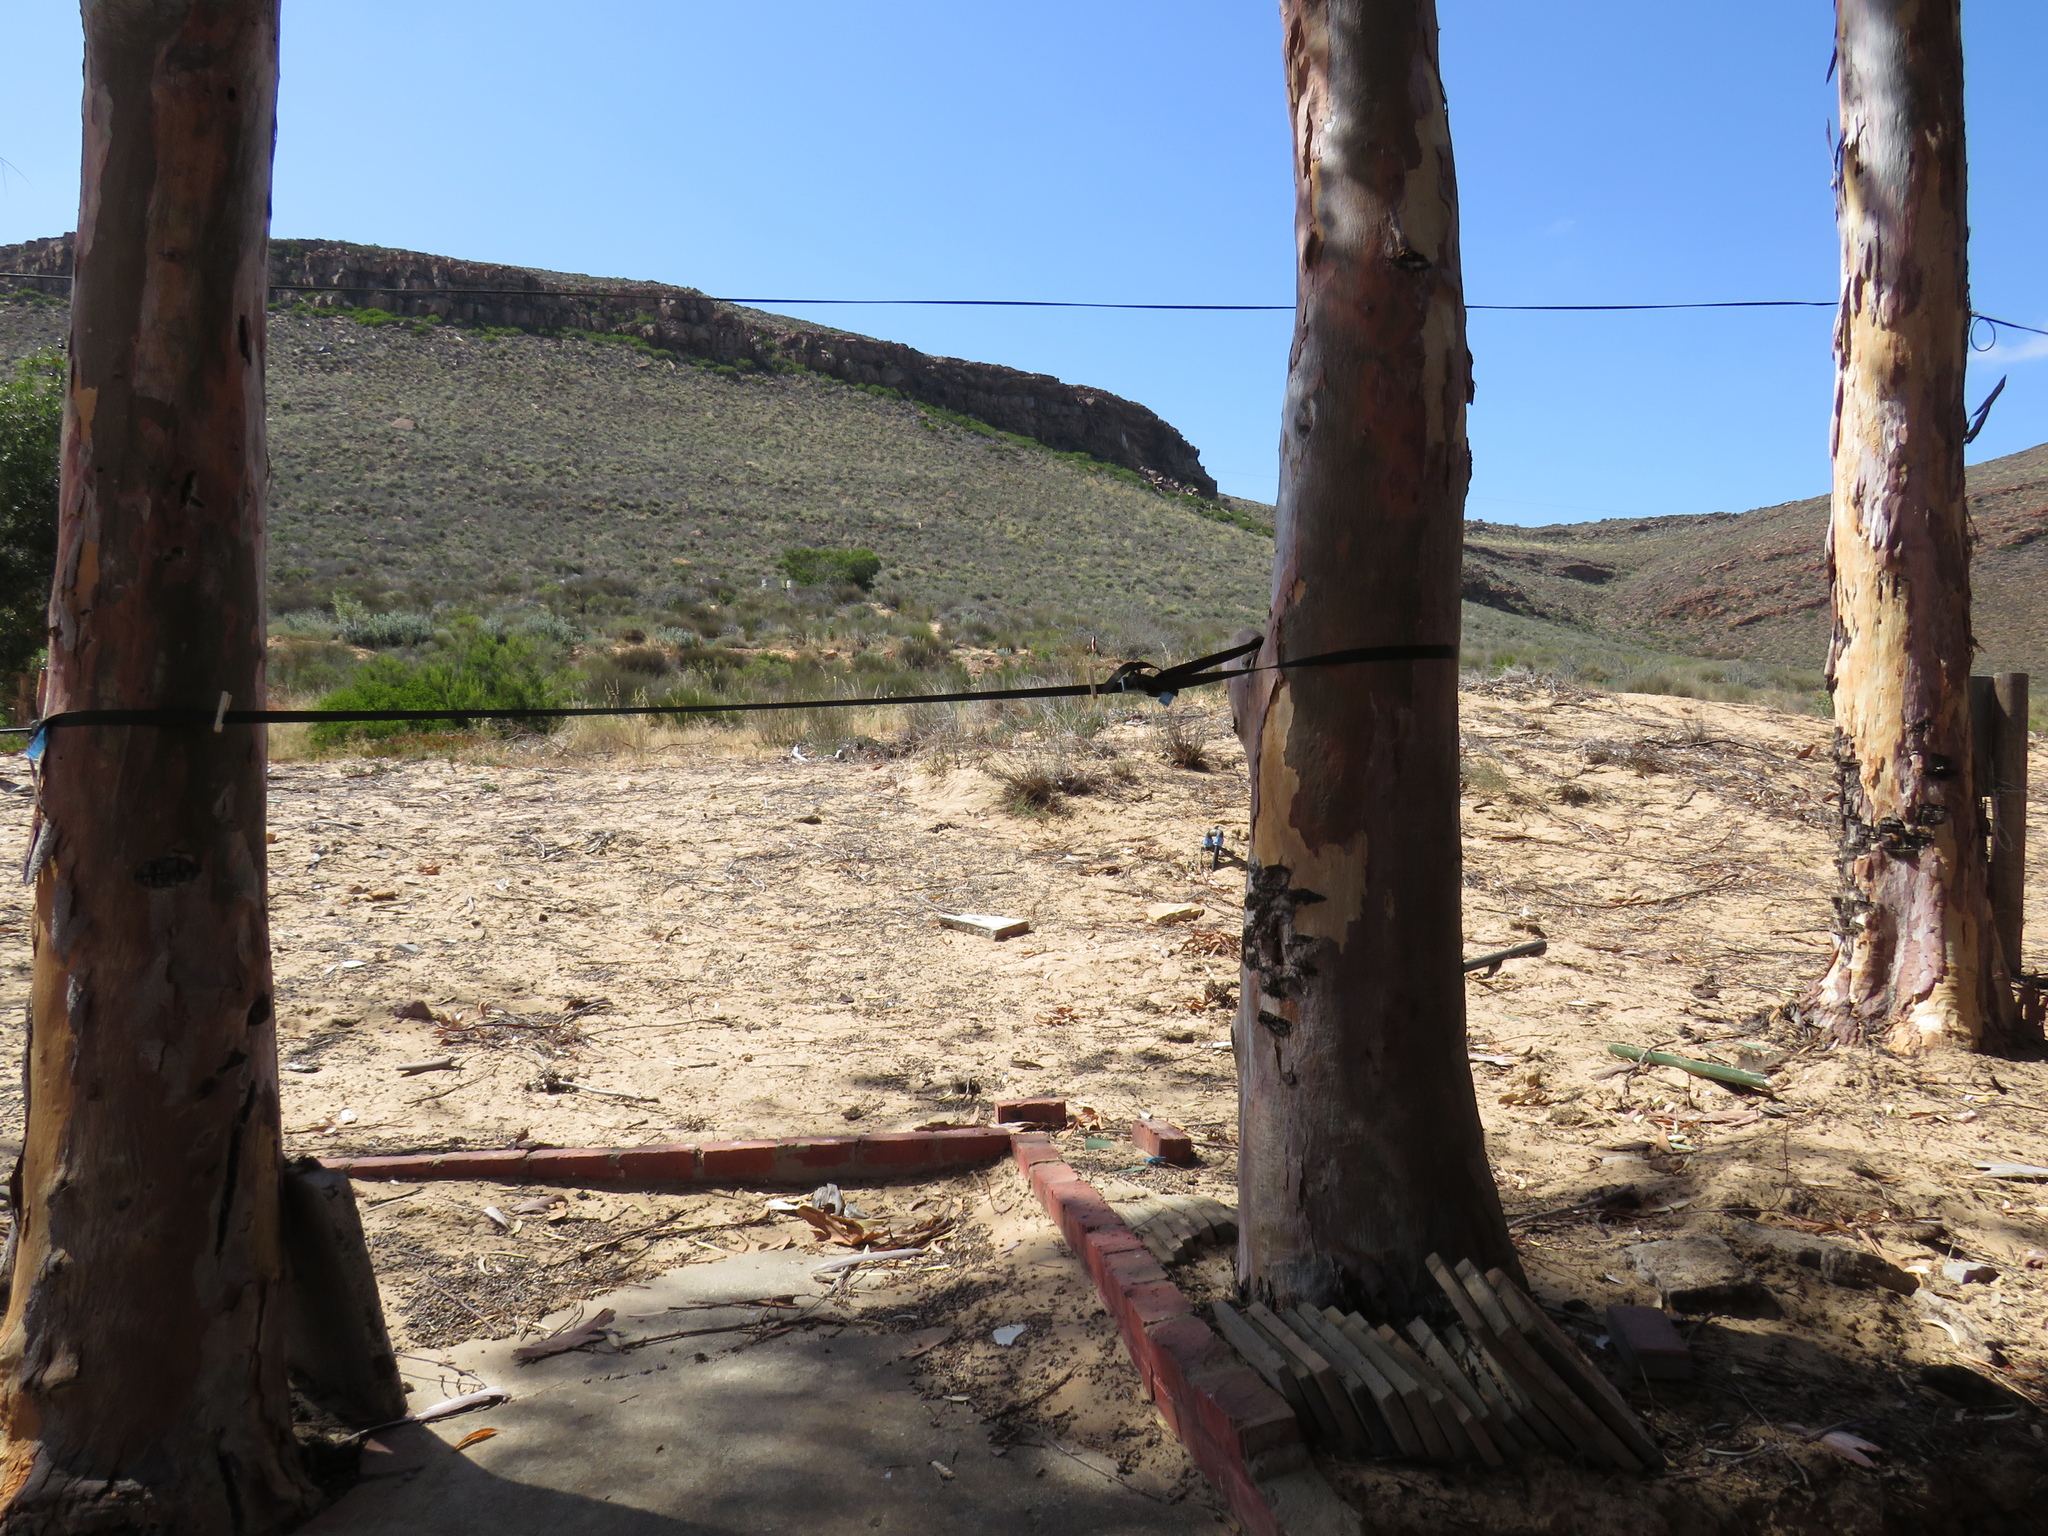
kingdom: Plantae
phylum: Tracheophyta
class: Magnoliopsida
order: Fabales
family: Fabaceae
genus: Acacia
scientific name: Acacia cyclops
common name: Coastal wattle
